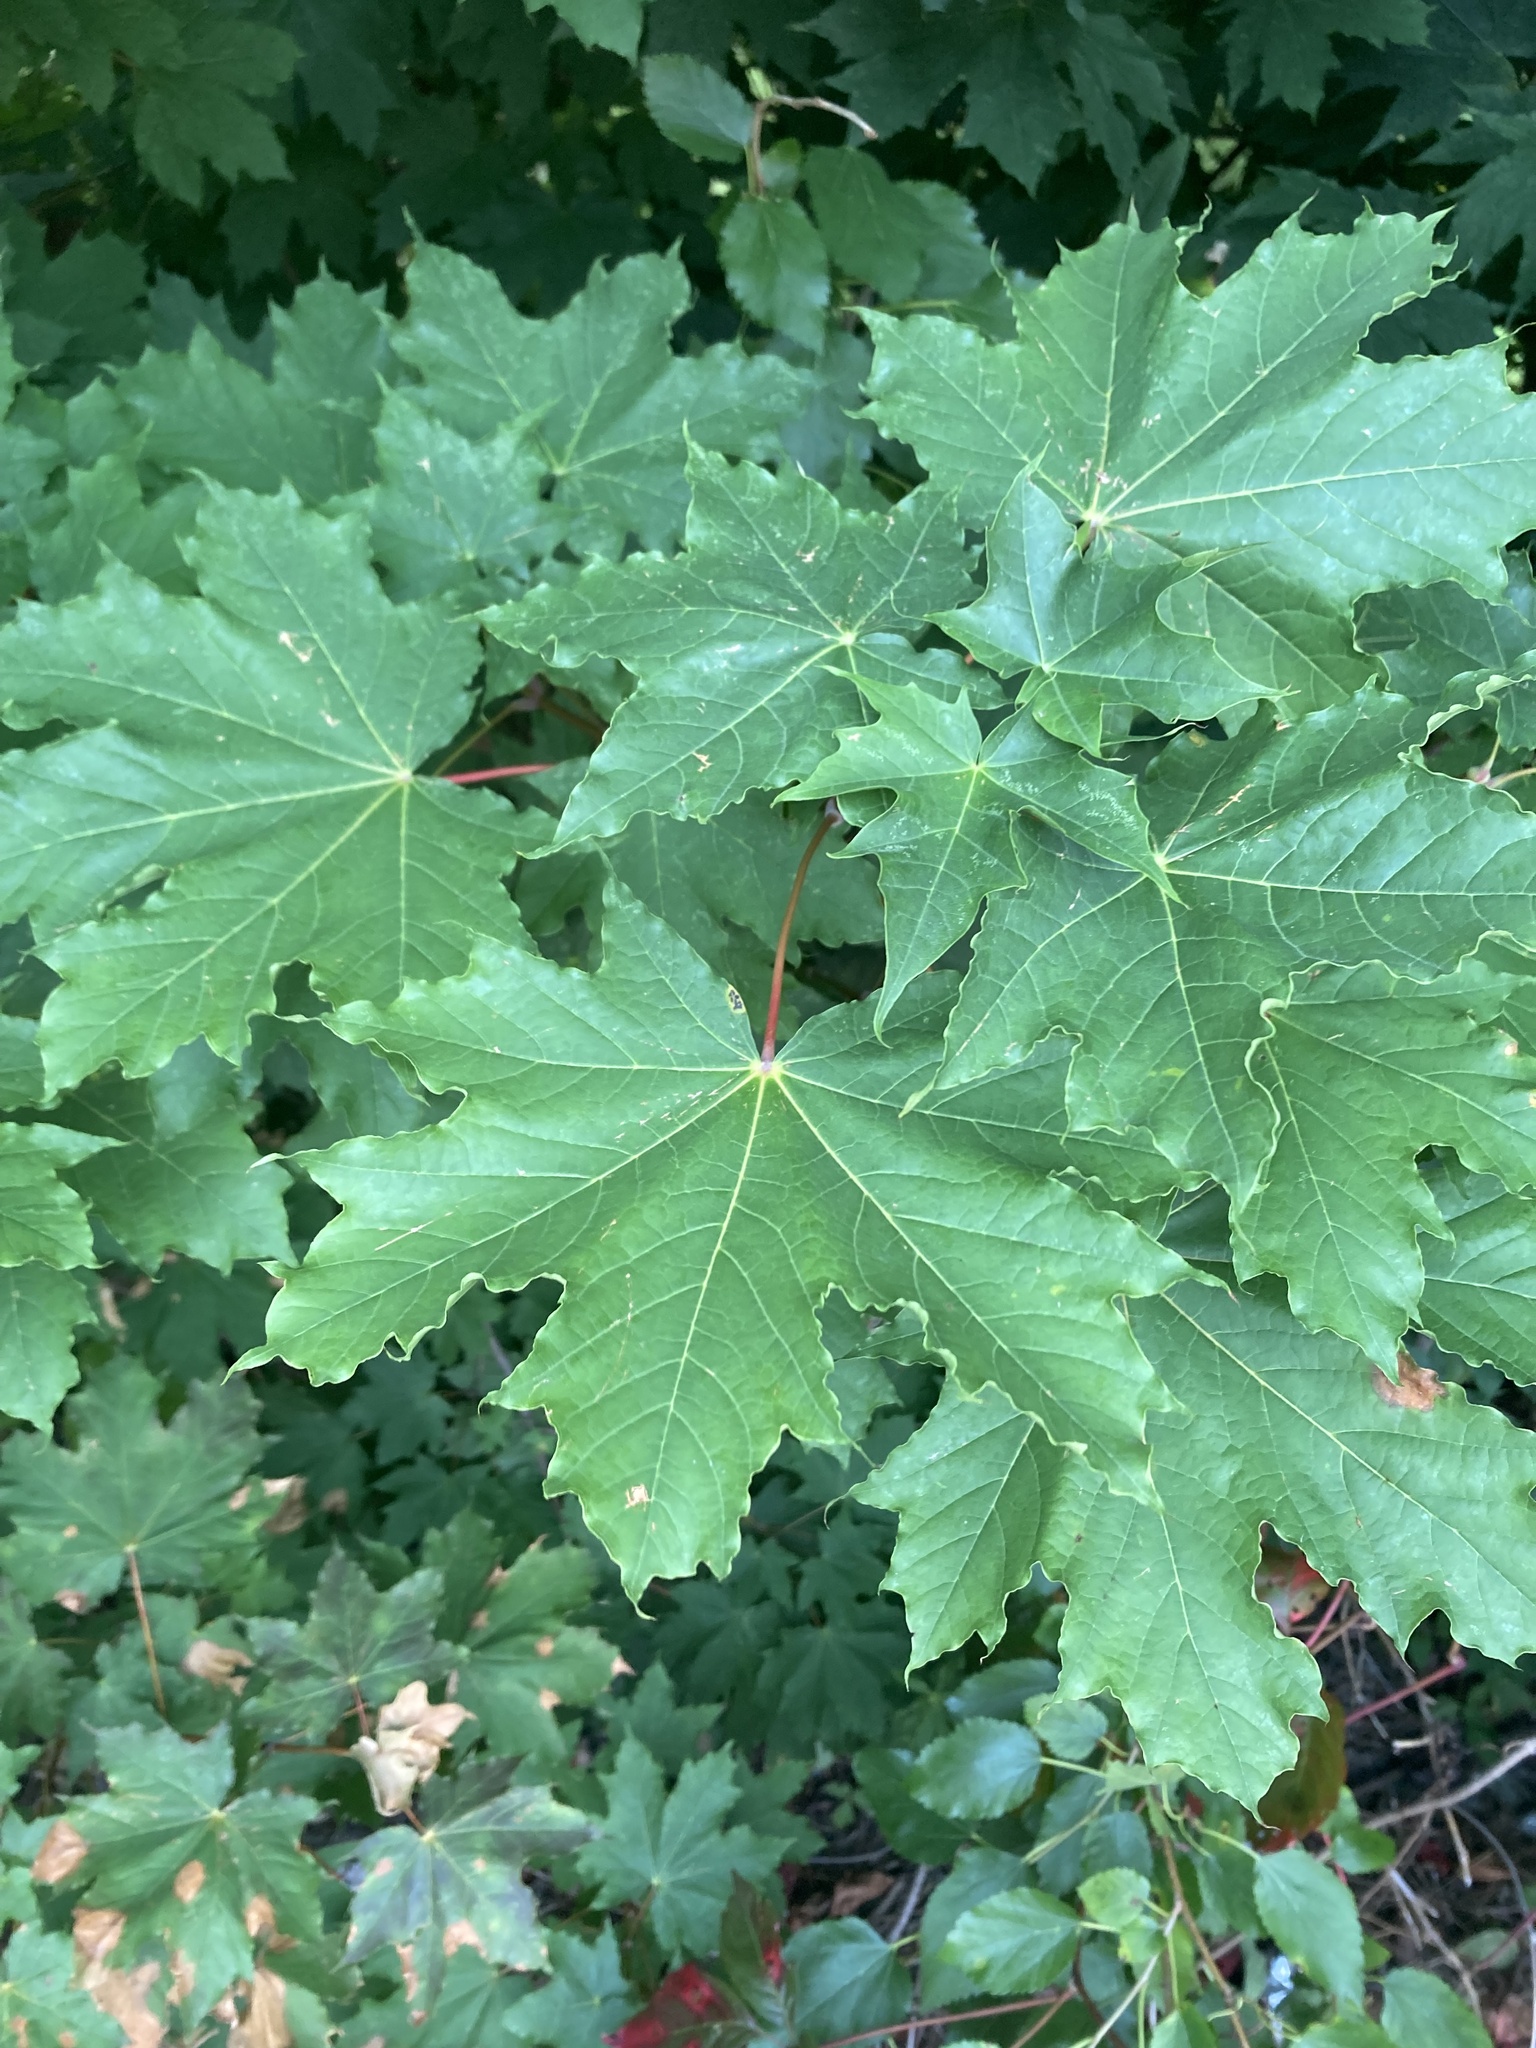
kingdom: Plantae
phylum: Tracheophyta
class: Magnoliopsida
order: Sapindales
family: Sapindaceae
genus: Acer
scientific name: Acer platanoides
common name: Norway maple
